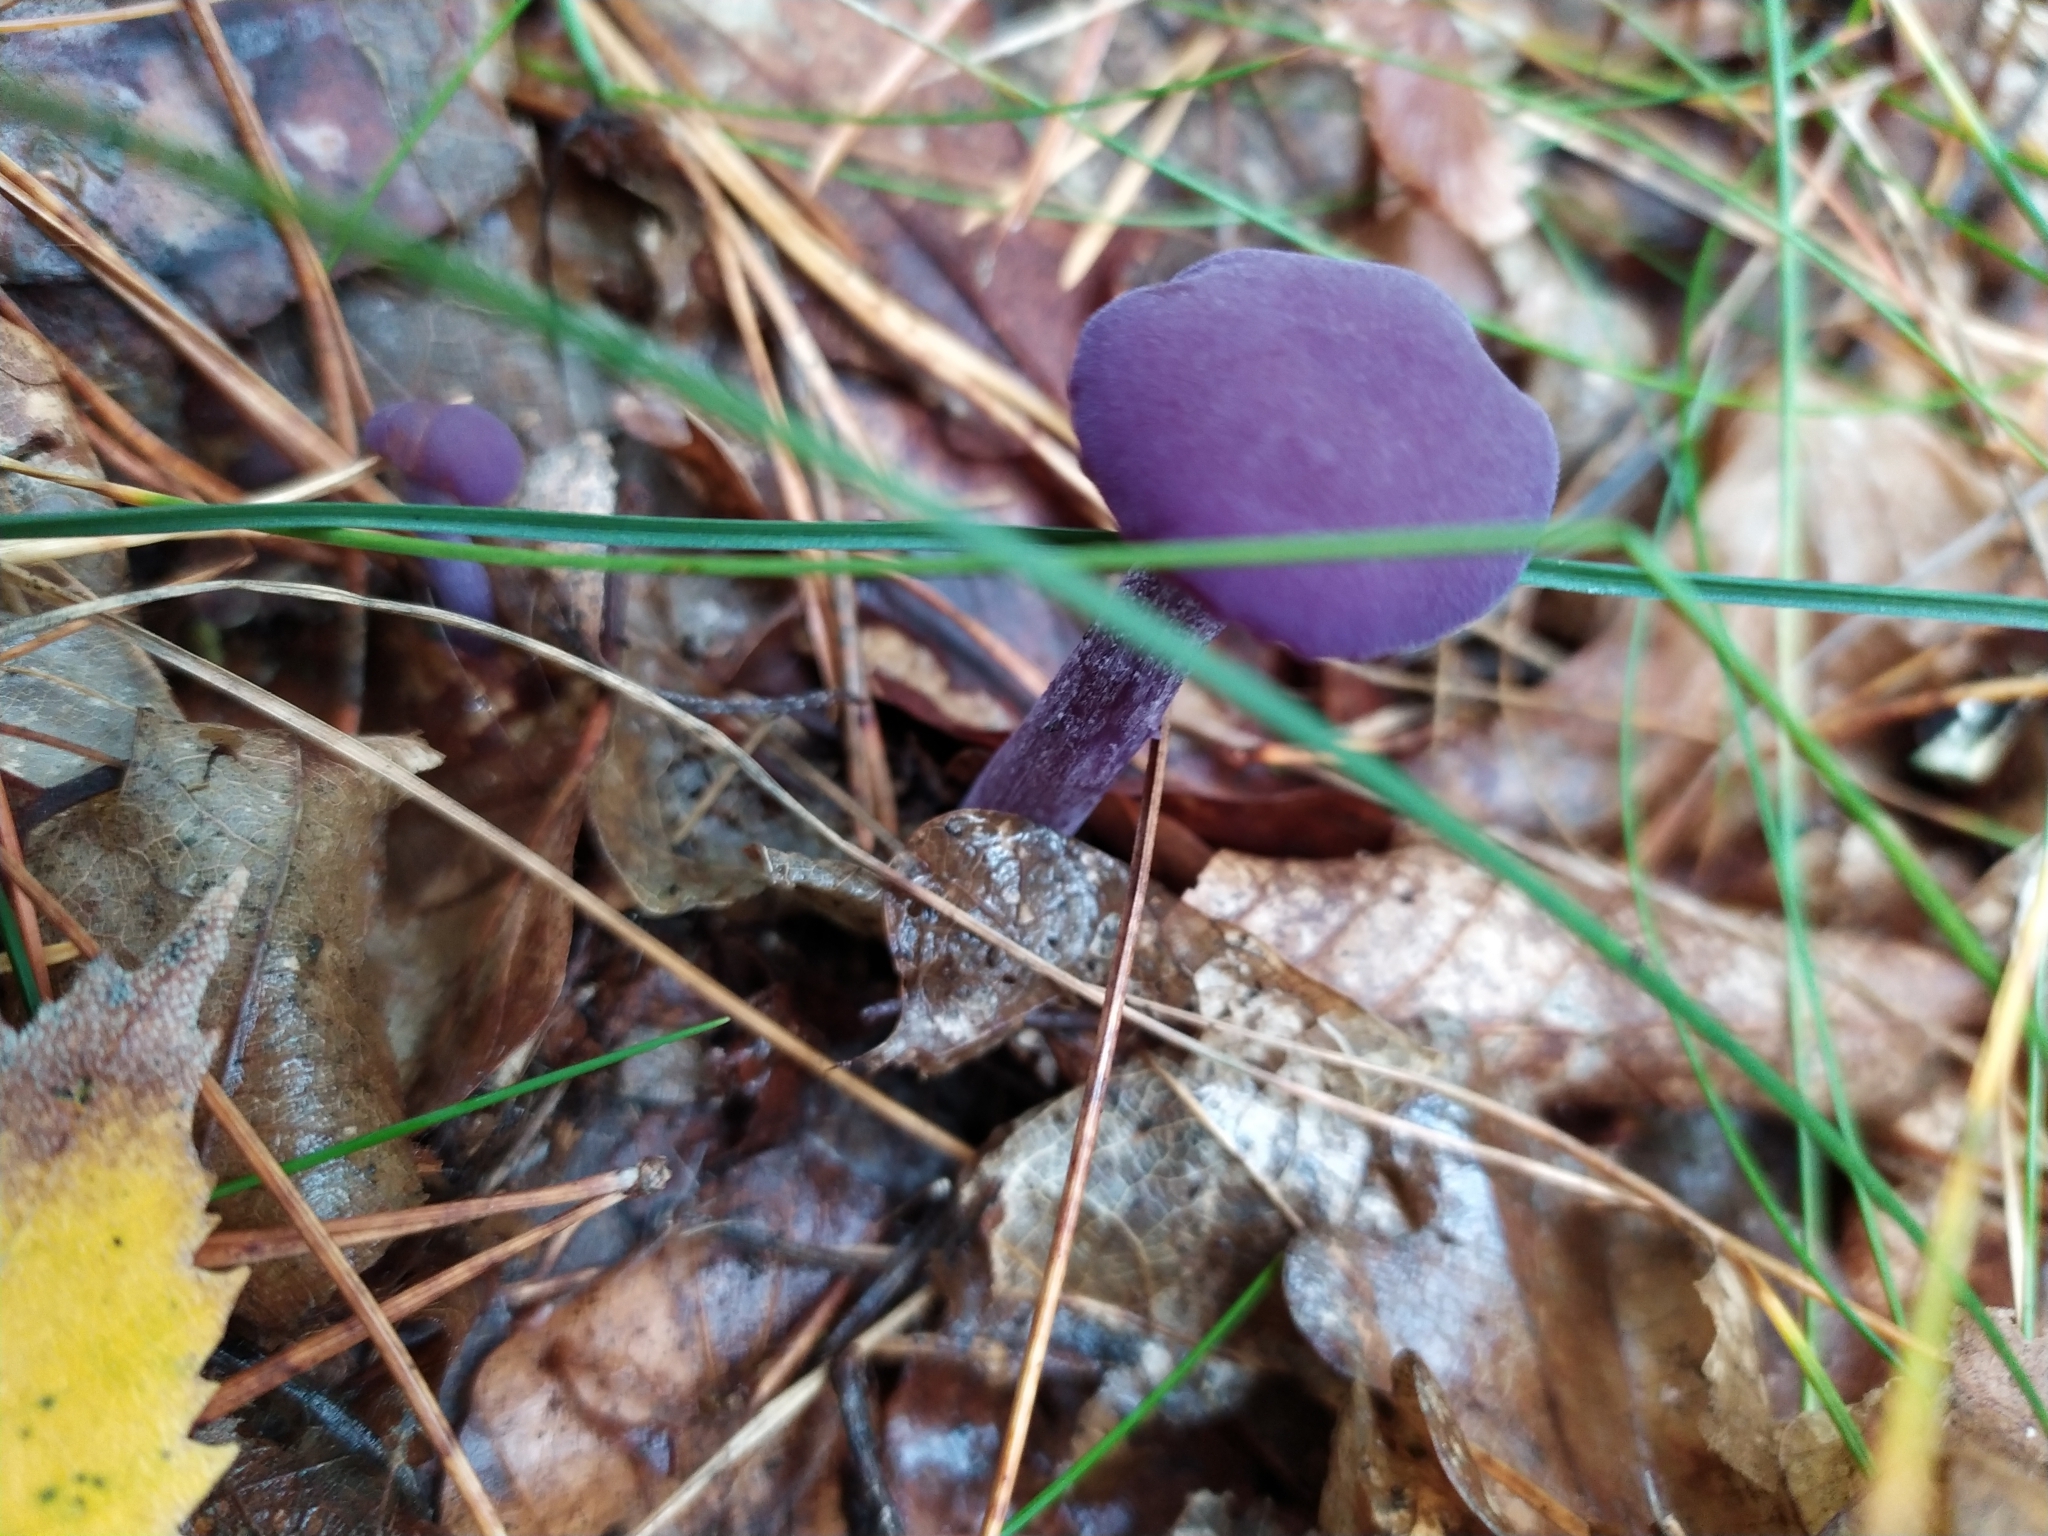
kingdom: Fungi
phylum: Basidiomycota
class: Agaricomycetes
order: Agaricales
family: Hydnangiaceae
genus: Laccaria
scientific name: Laccaria amethystina
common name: Amethyst deceiver
